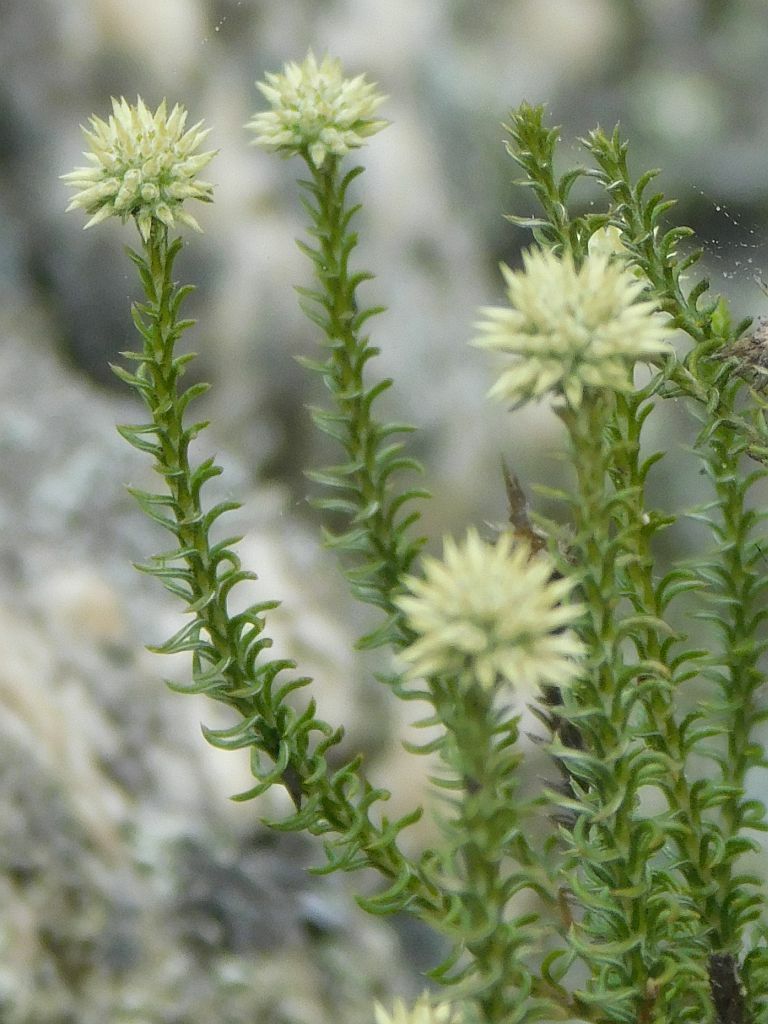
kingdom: Plantae
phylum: Tracheophyta
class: Magnoliopsida
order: Asterales
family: Asteraceae
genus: Seriphium
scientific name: Seriphium spirale
